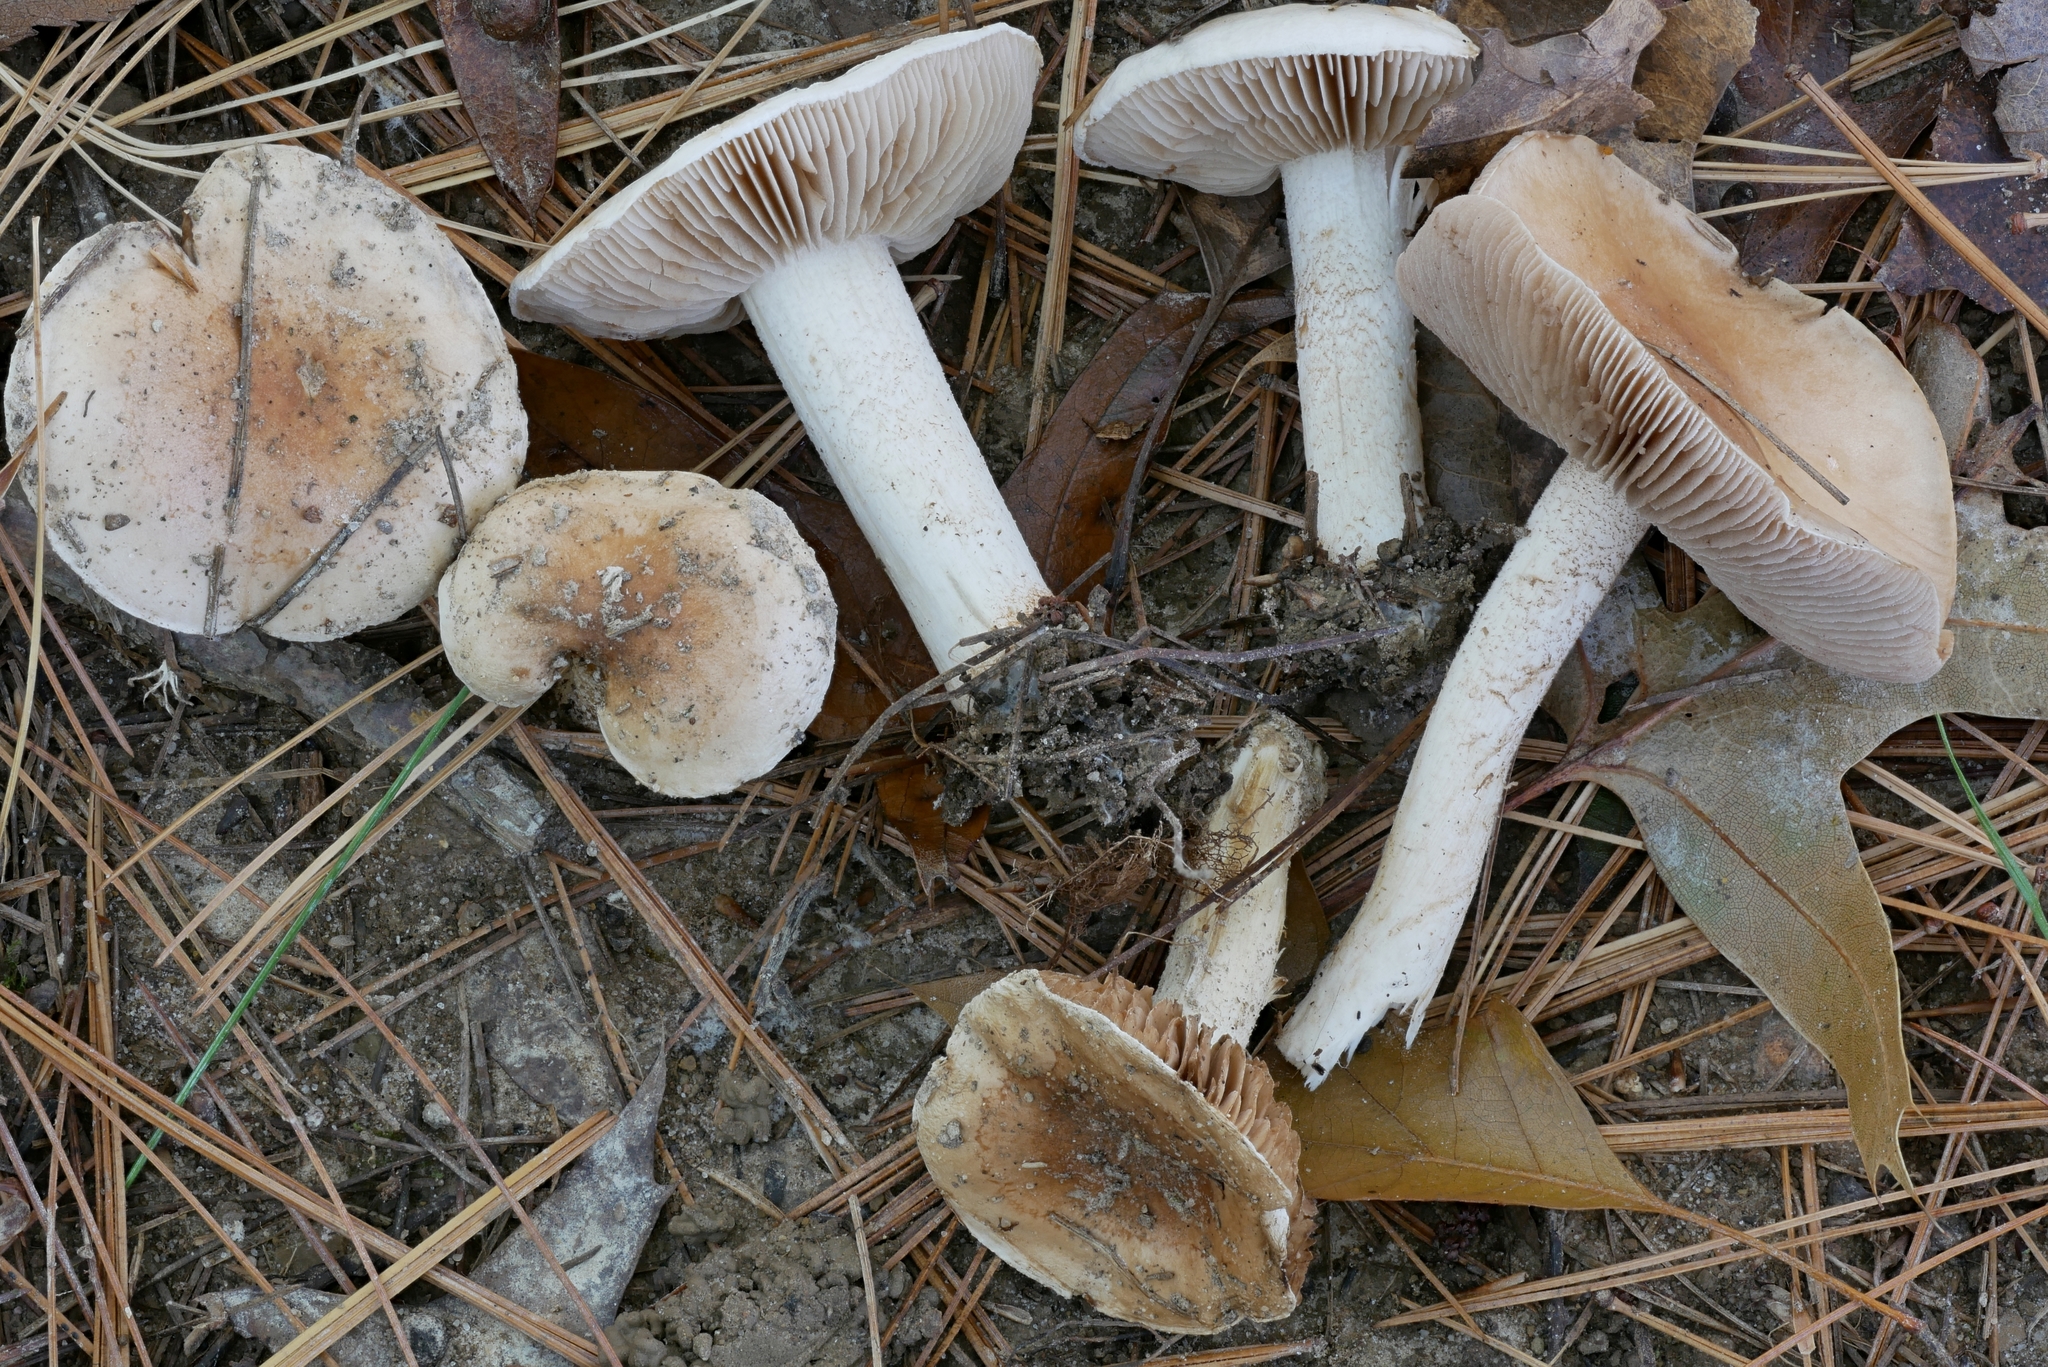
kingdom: Fungi
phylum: Basidiomycota
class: Agaricomycetes
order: Agaricales
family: Hymenogastraceae
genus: Hebeloma
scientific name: Hebeloma albidulum
